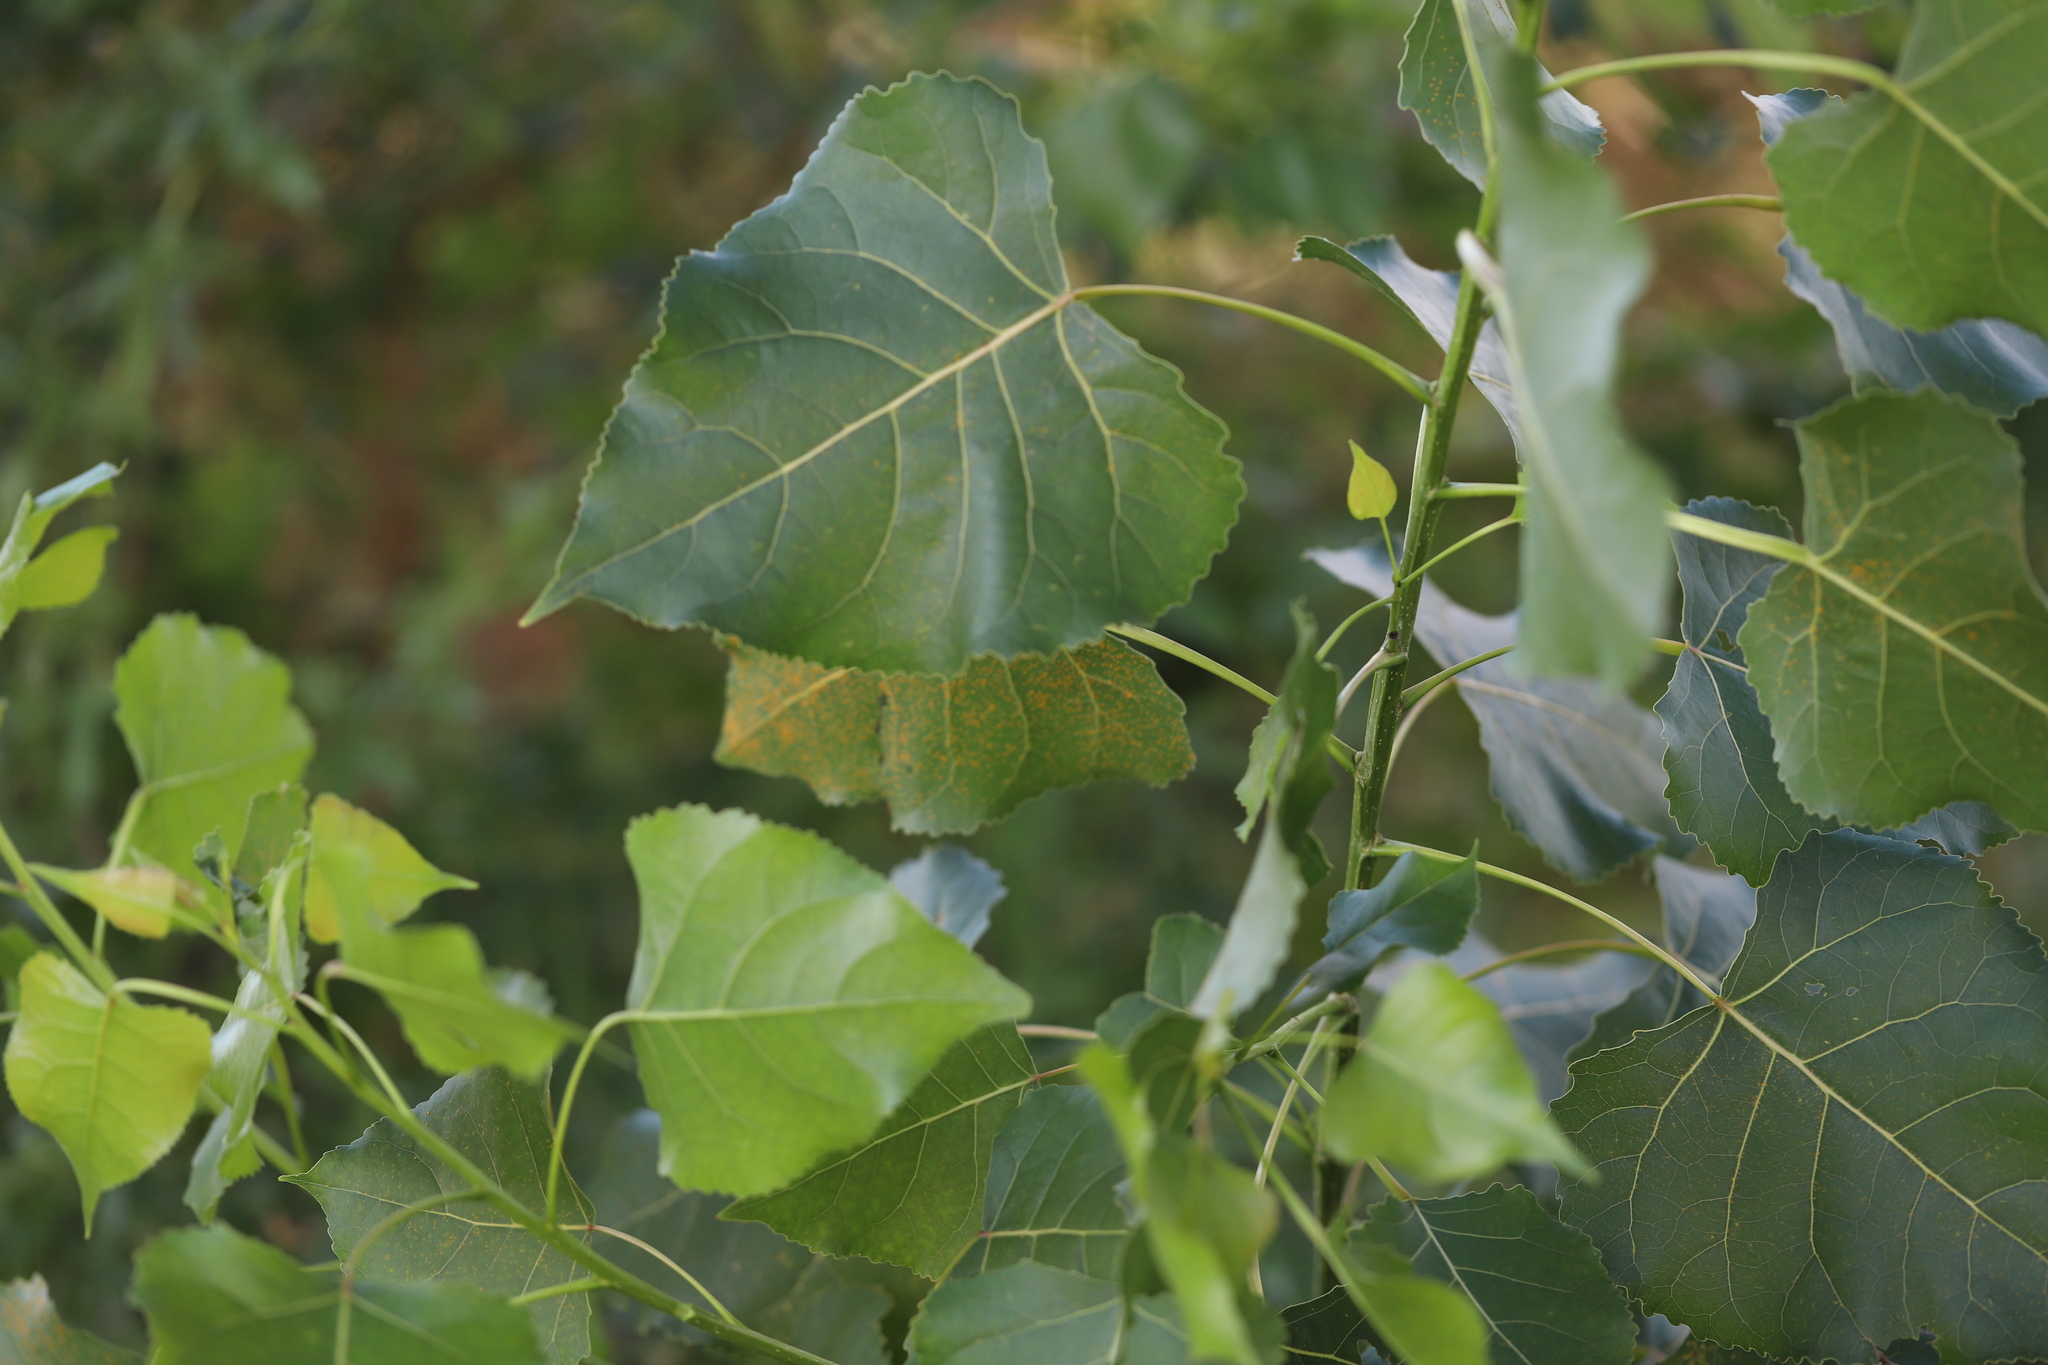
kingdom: Plantae
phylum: Tracheophyta
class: Magnoliopsida
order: Malpighiales
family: Salicaceae
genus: Populus
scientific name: Populus deltoides
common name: Eastern cottonwood
